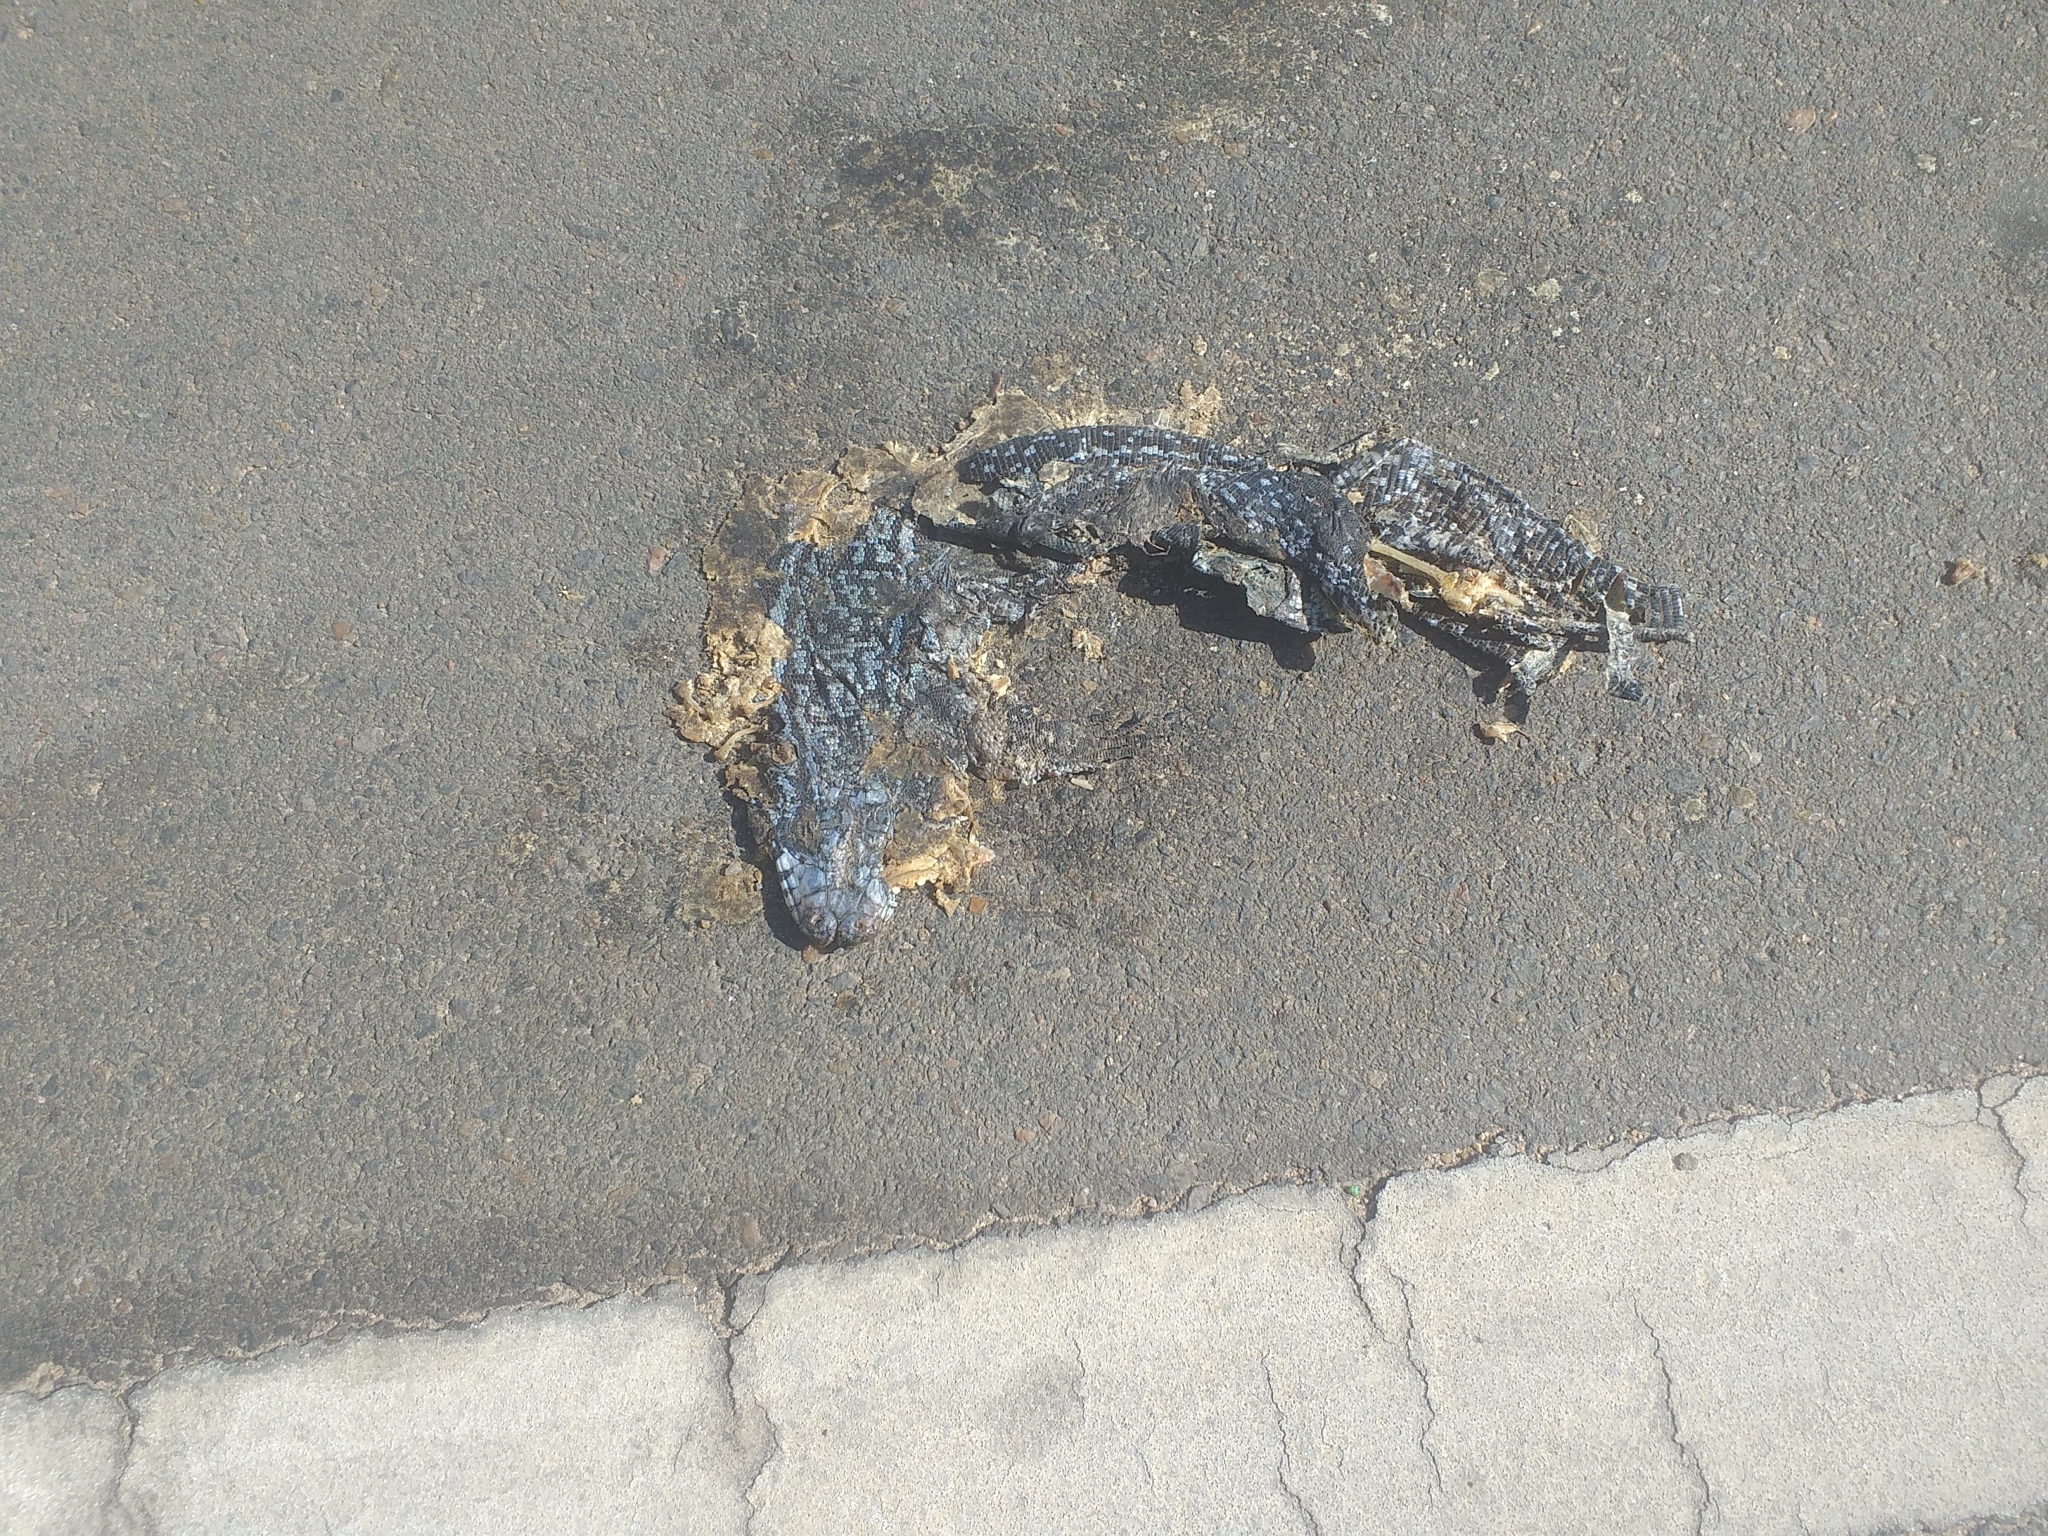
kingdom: Animalia
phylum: Chordata
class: Squamata
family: Teiidae
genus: Salvator
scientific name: Salvator merianae
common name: Argentine black and white tegu
